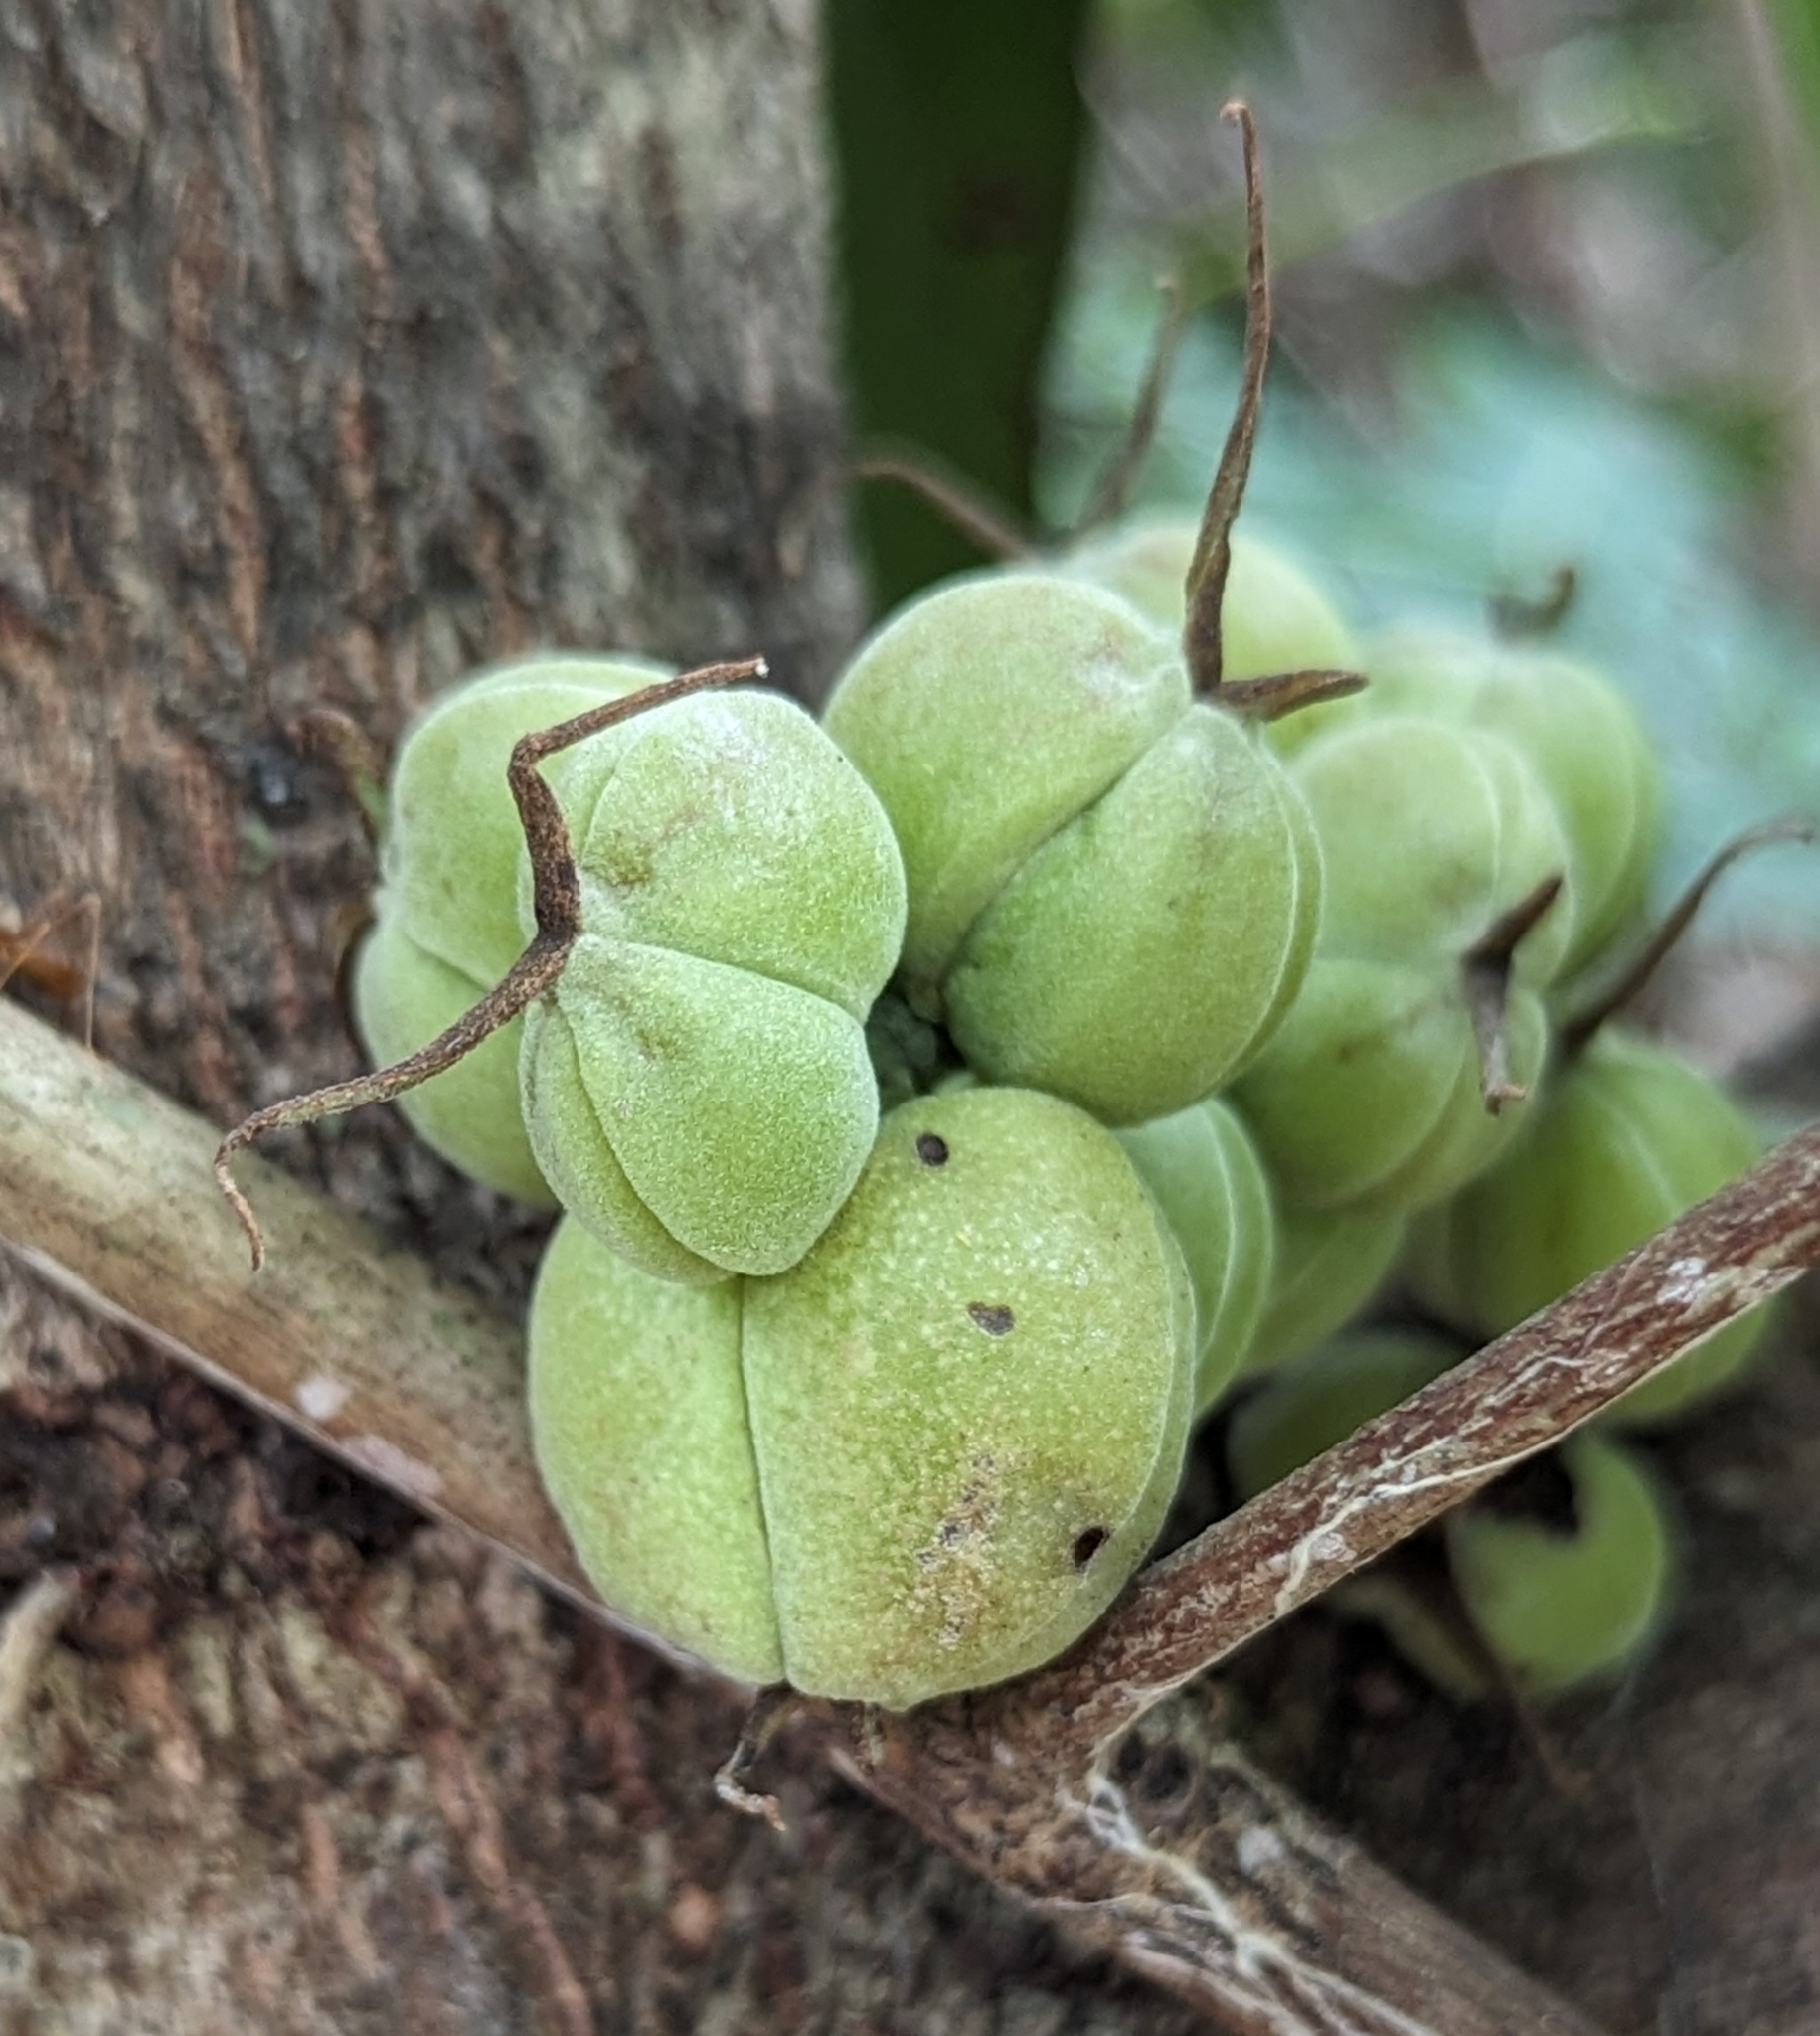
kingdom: Plantae
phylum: Tracheophyta
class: Magnoliopsida
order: Malpighiales
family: Euphorbiaceae
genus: Alchornea
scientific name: Alchornea cordifolia
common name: Christmasbush
